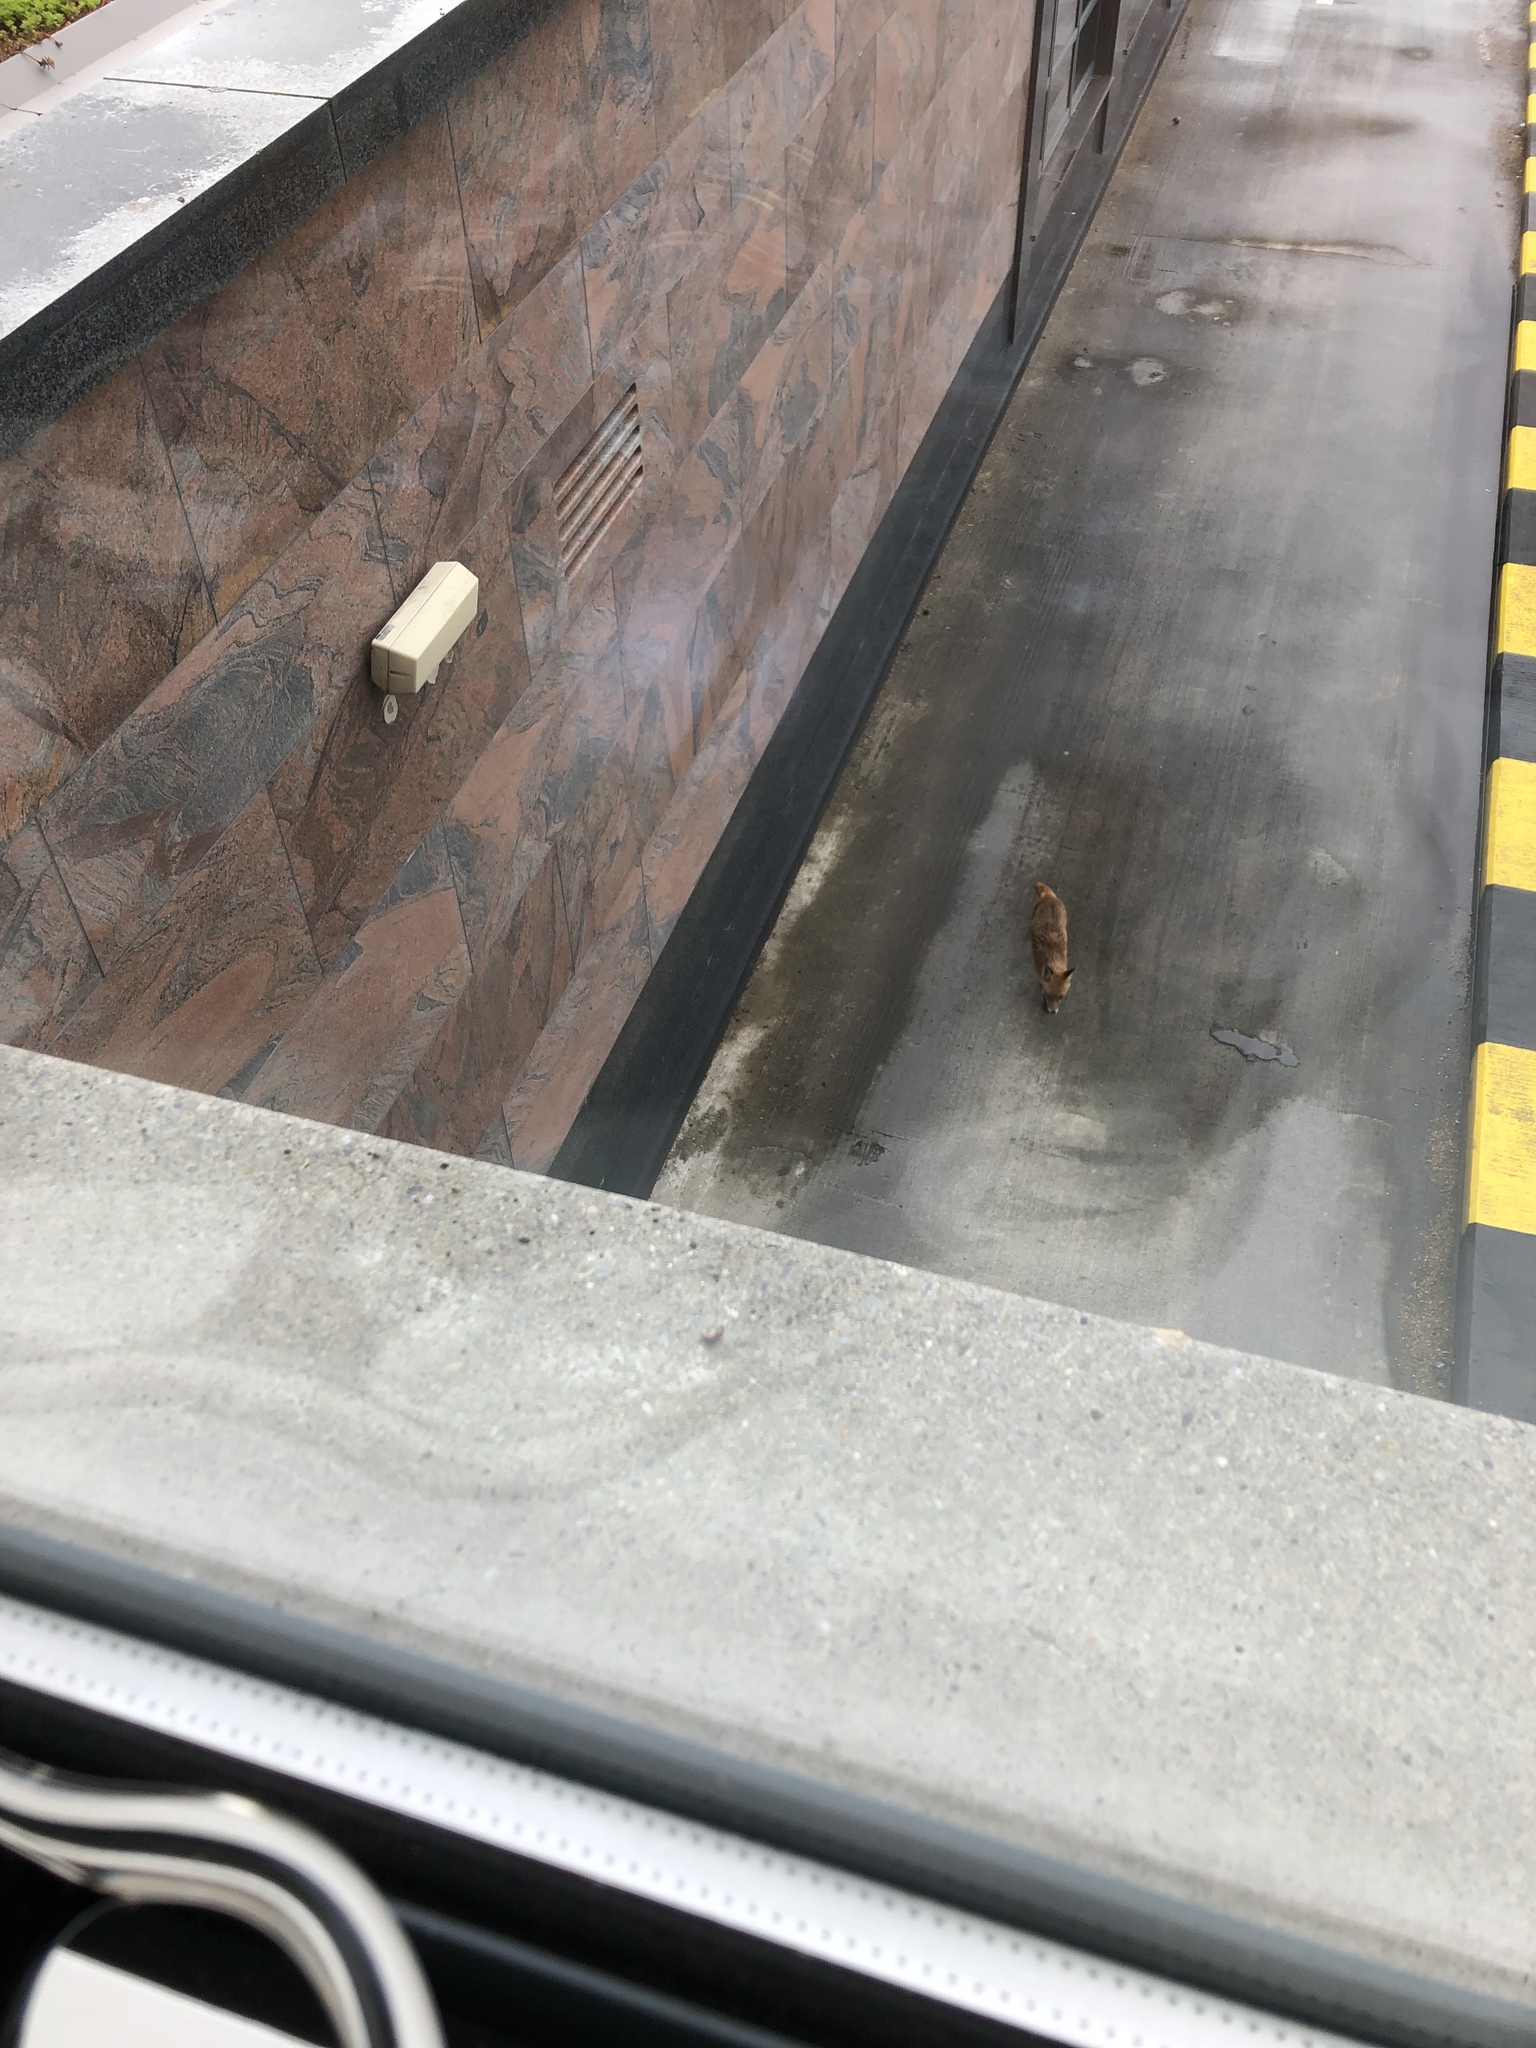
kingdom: Animalia
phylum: Chordata
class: Mammalia
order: Carnivora
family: Canidae
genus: Vulpes
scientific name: Vulpes vulpes
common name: Red fox
